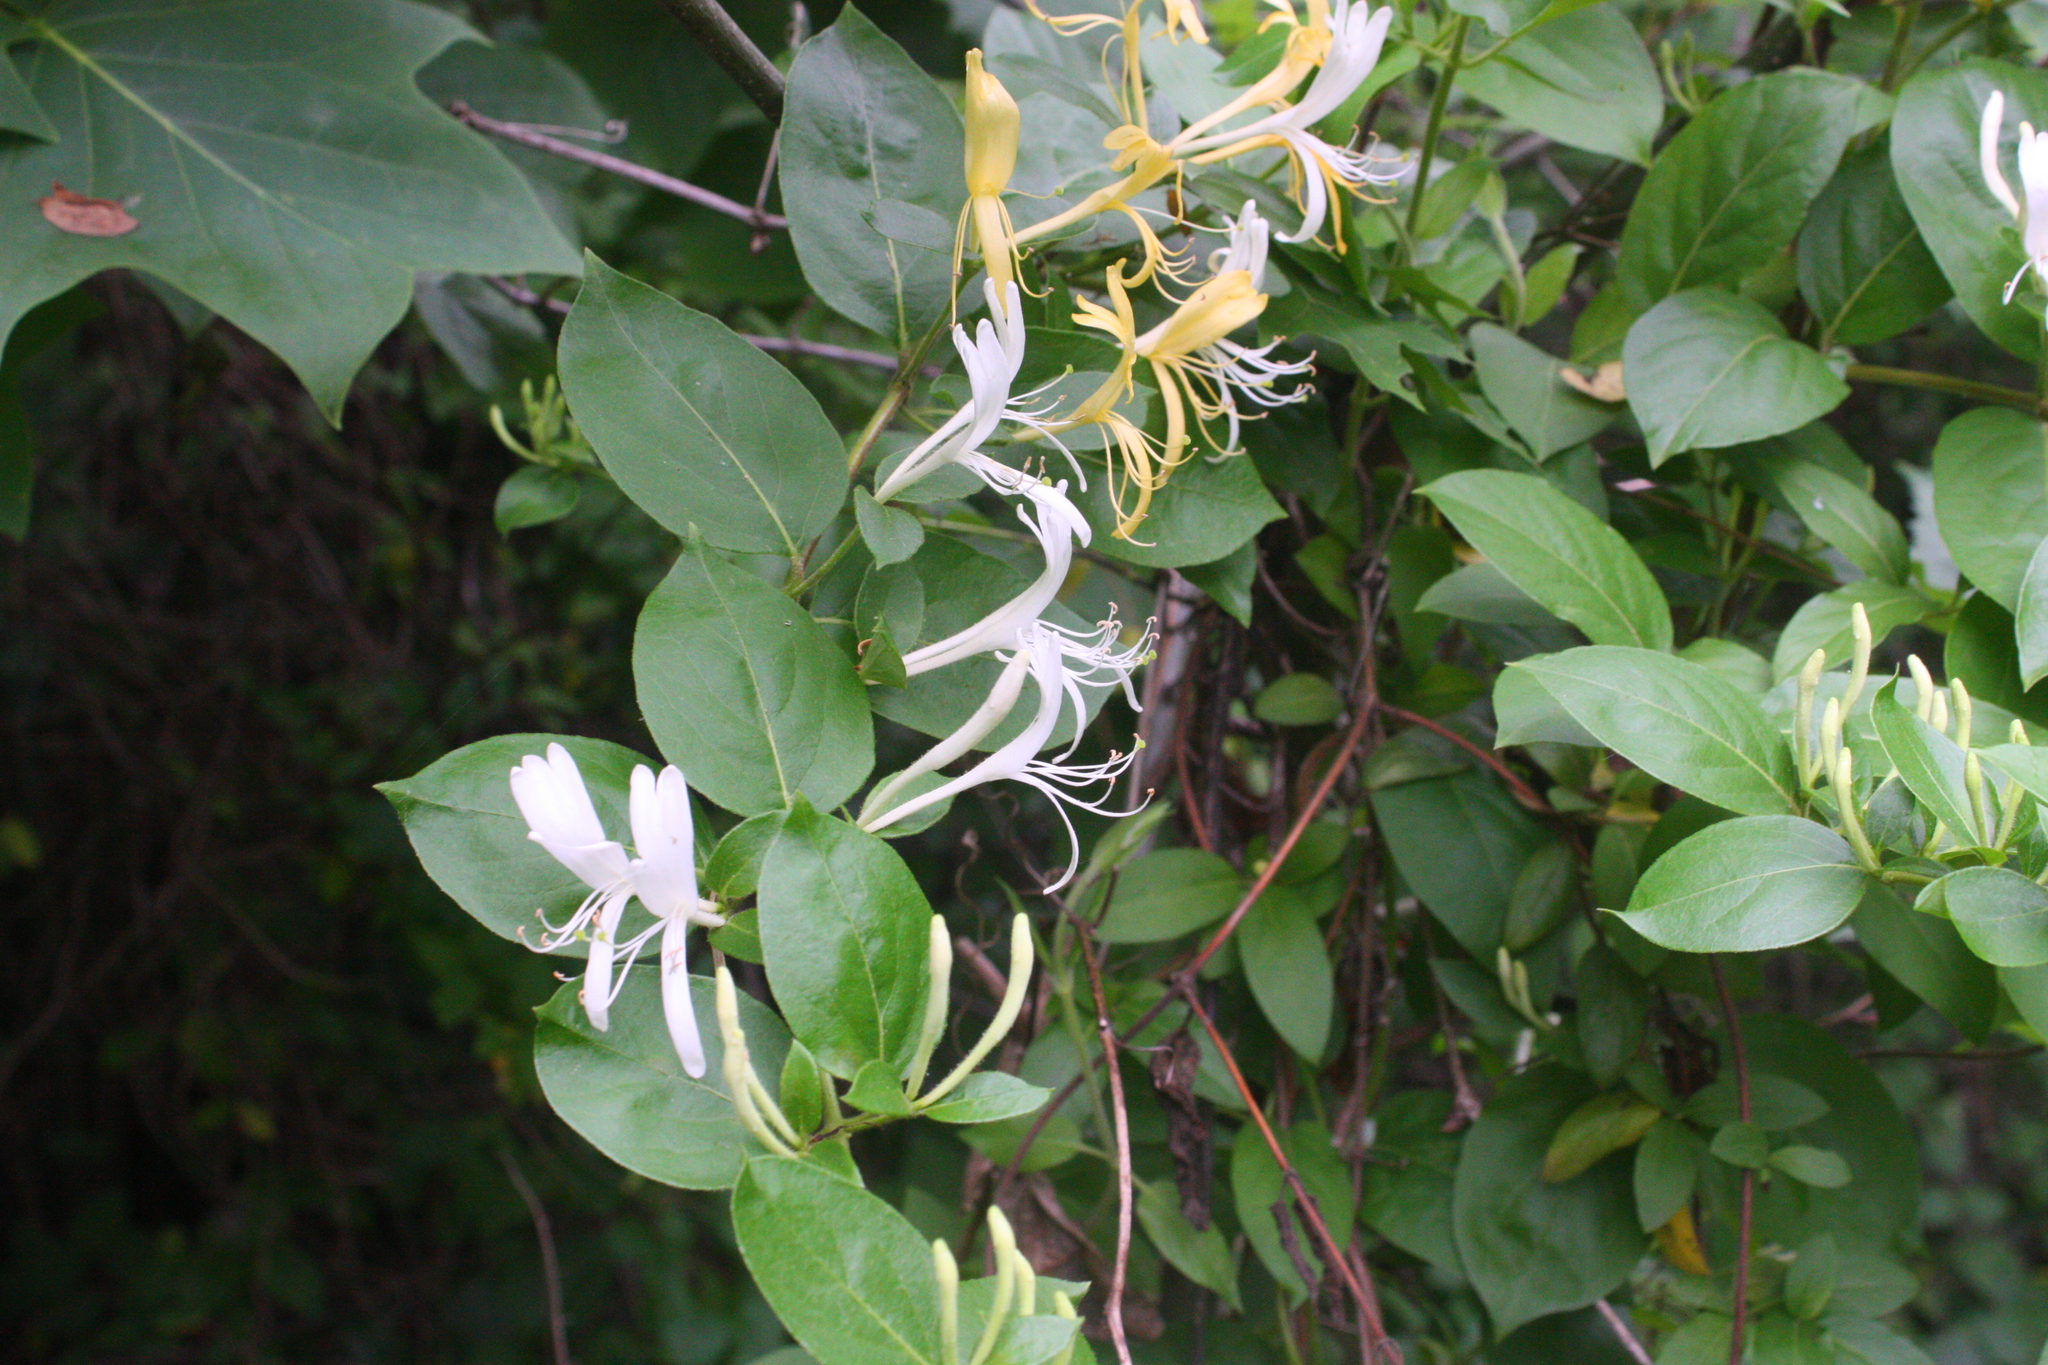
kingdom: Plantae
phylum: Tracheophyta
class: Magnoliopsida
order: Dipsacales
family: Caprifoliaceae
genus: Lonicera
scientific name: Lonicera japonica
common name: Japanese honeysuckle
